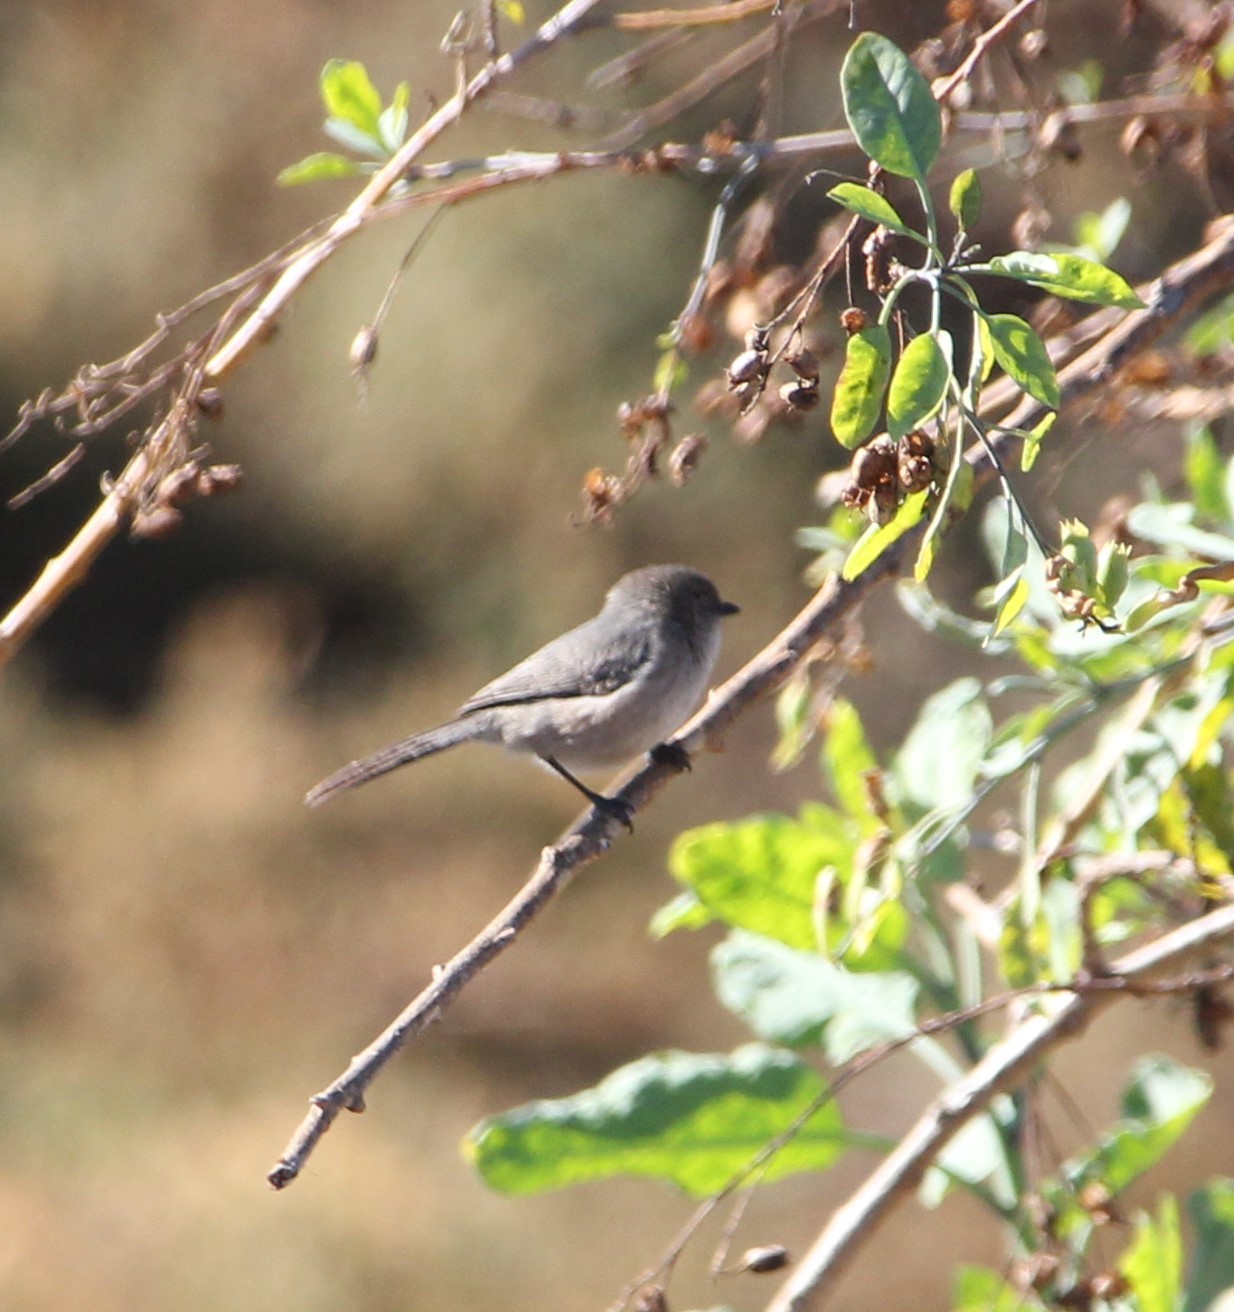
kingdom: Animalia
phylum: Chordata
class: Aves
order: Passeriformes
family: Aegithalidae
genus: Psaltriparus
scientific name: Psaltriparus minimus
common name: American bushtit
